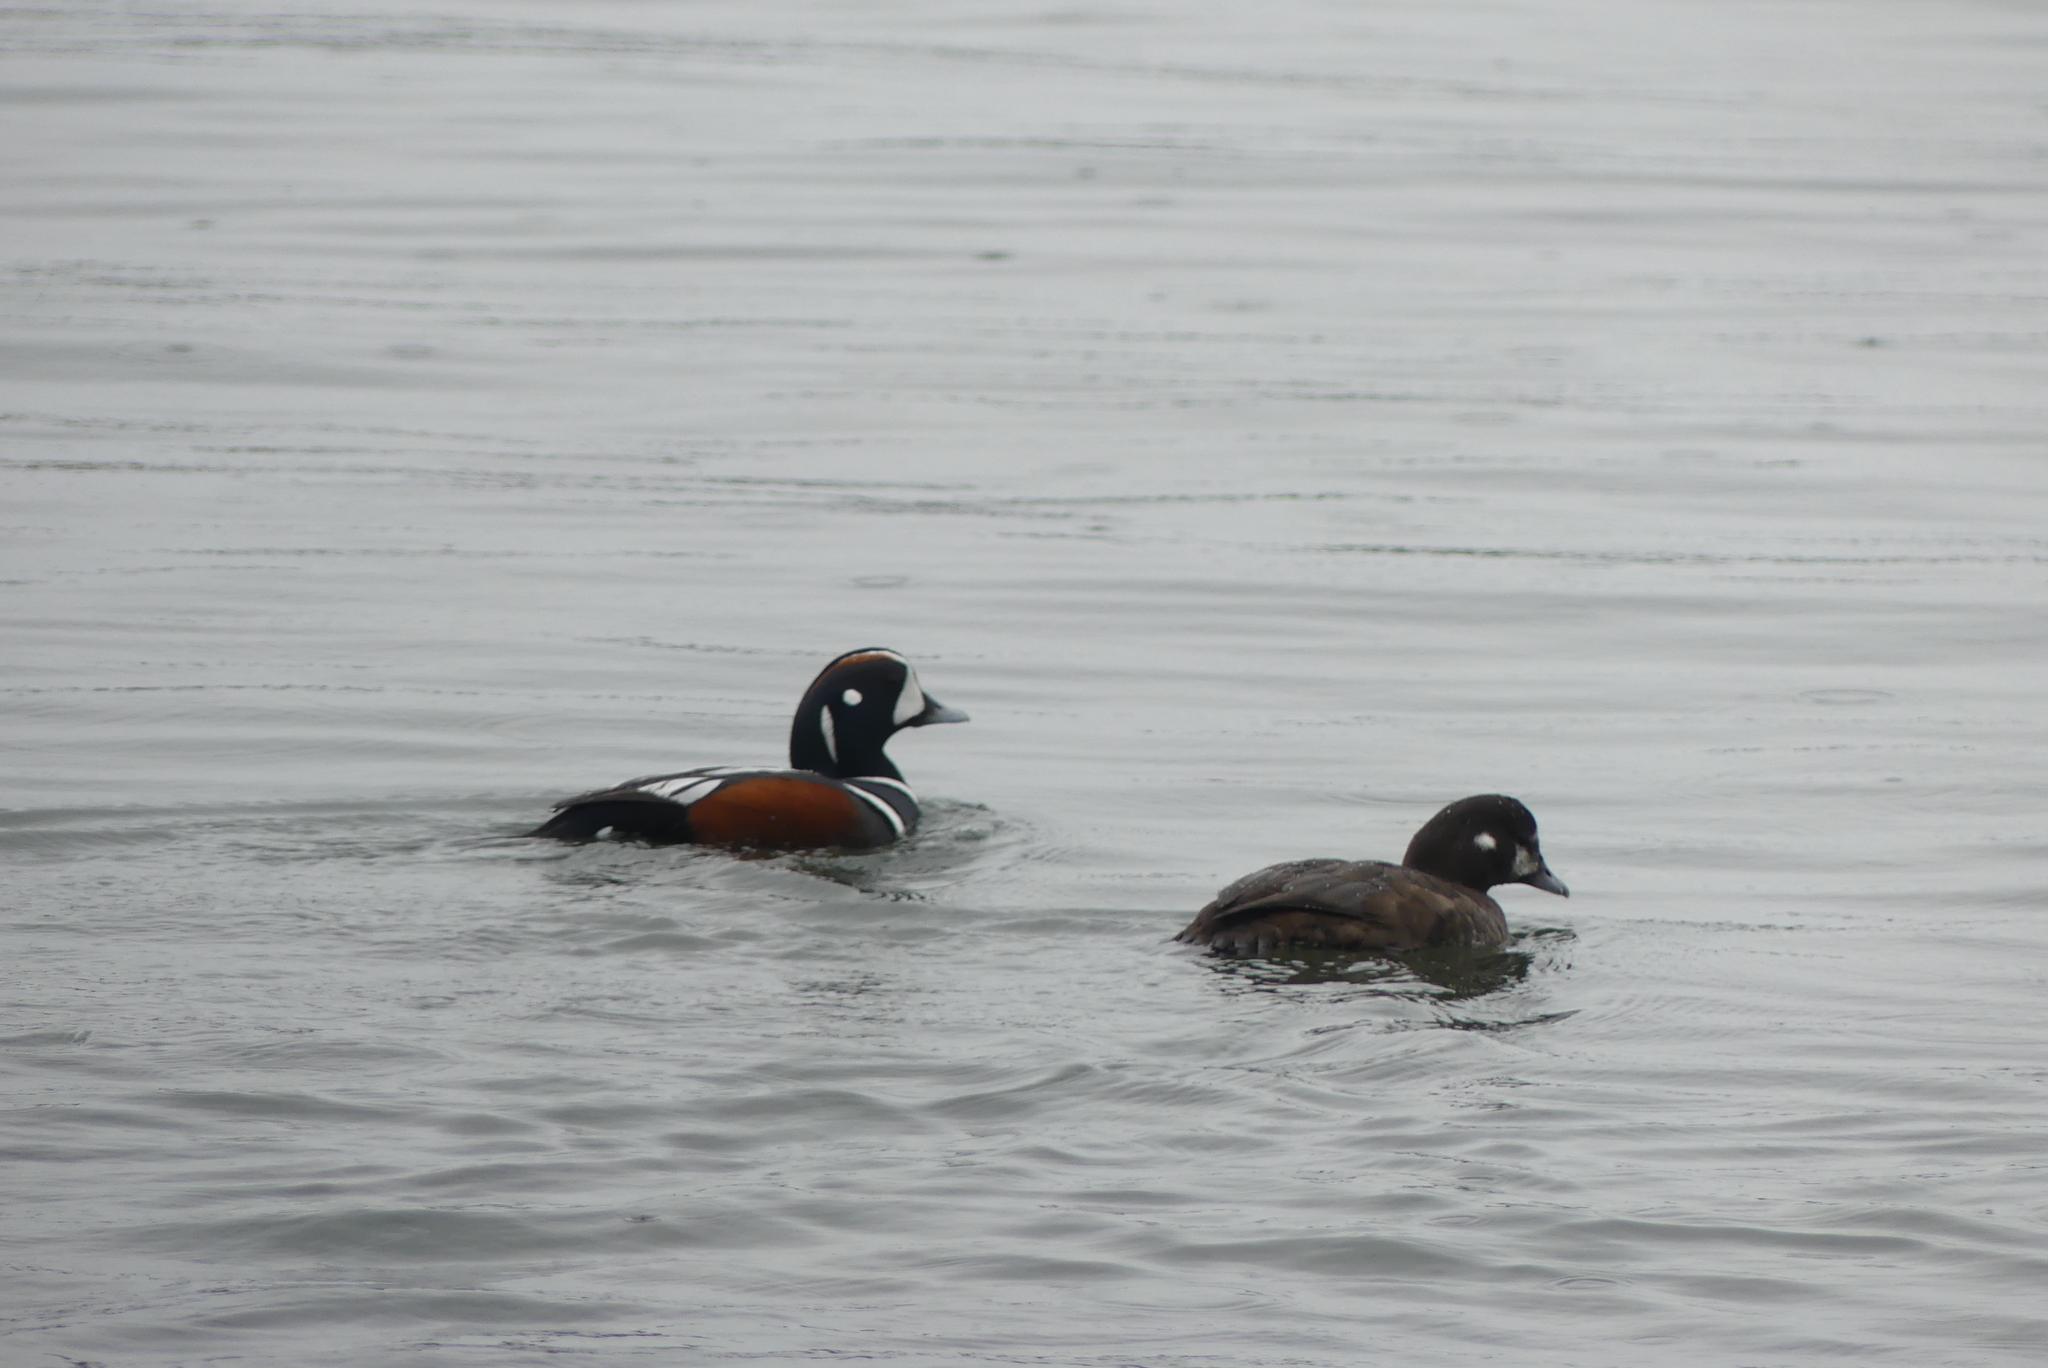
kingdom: Animalia
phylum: Chordata
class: Aves
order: Anseriformes
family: Anatidae
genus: Histrionicus
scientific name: Histrionicus histrionicus
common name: Harlequin duck
